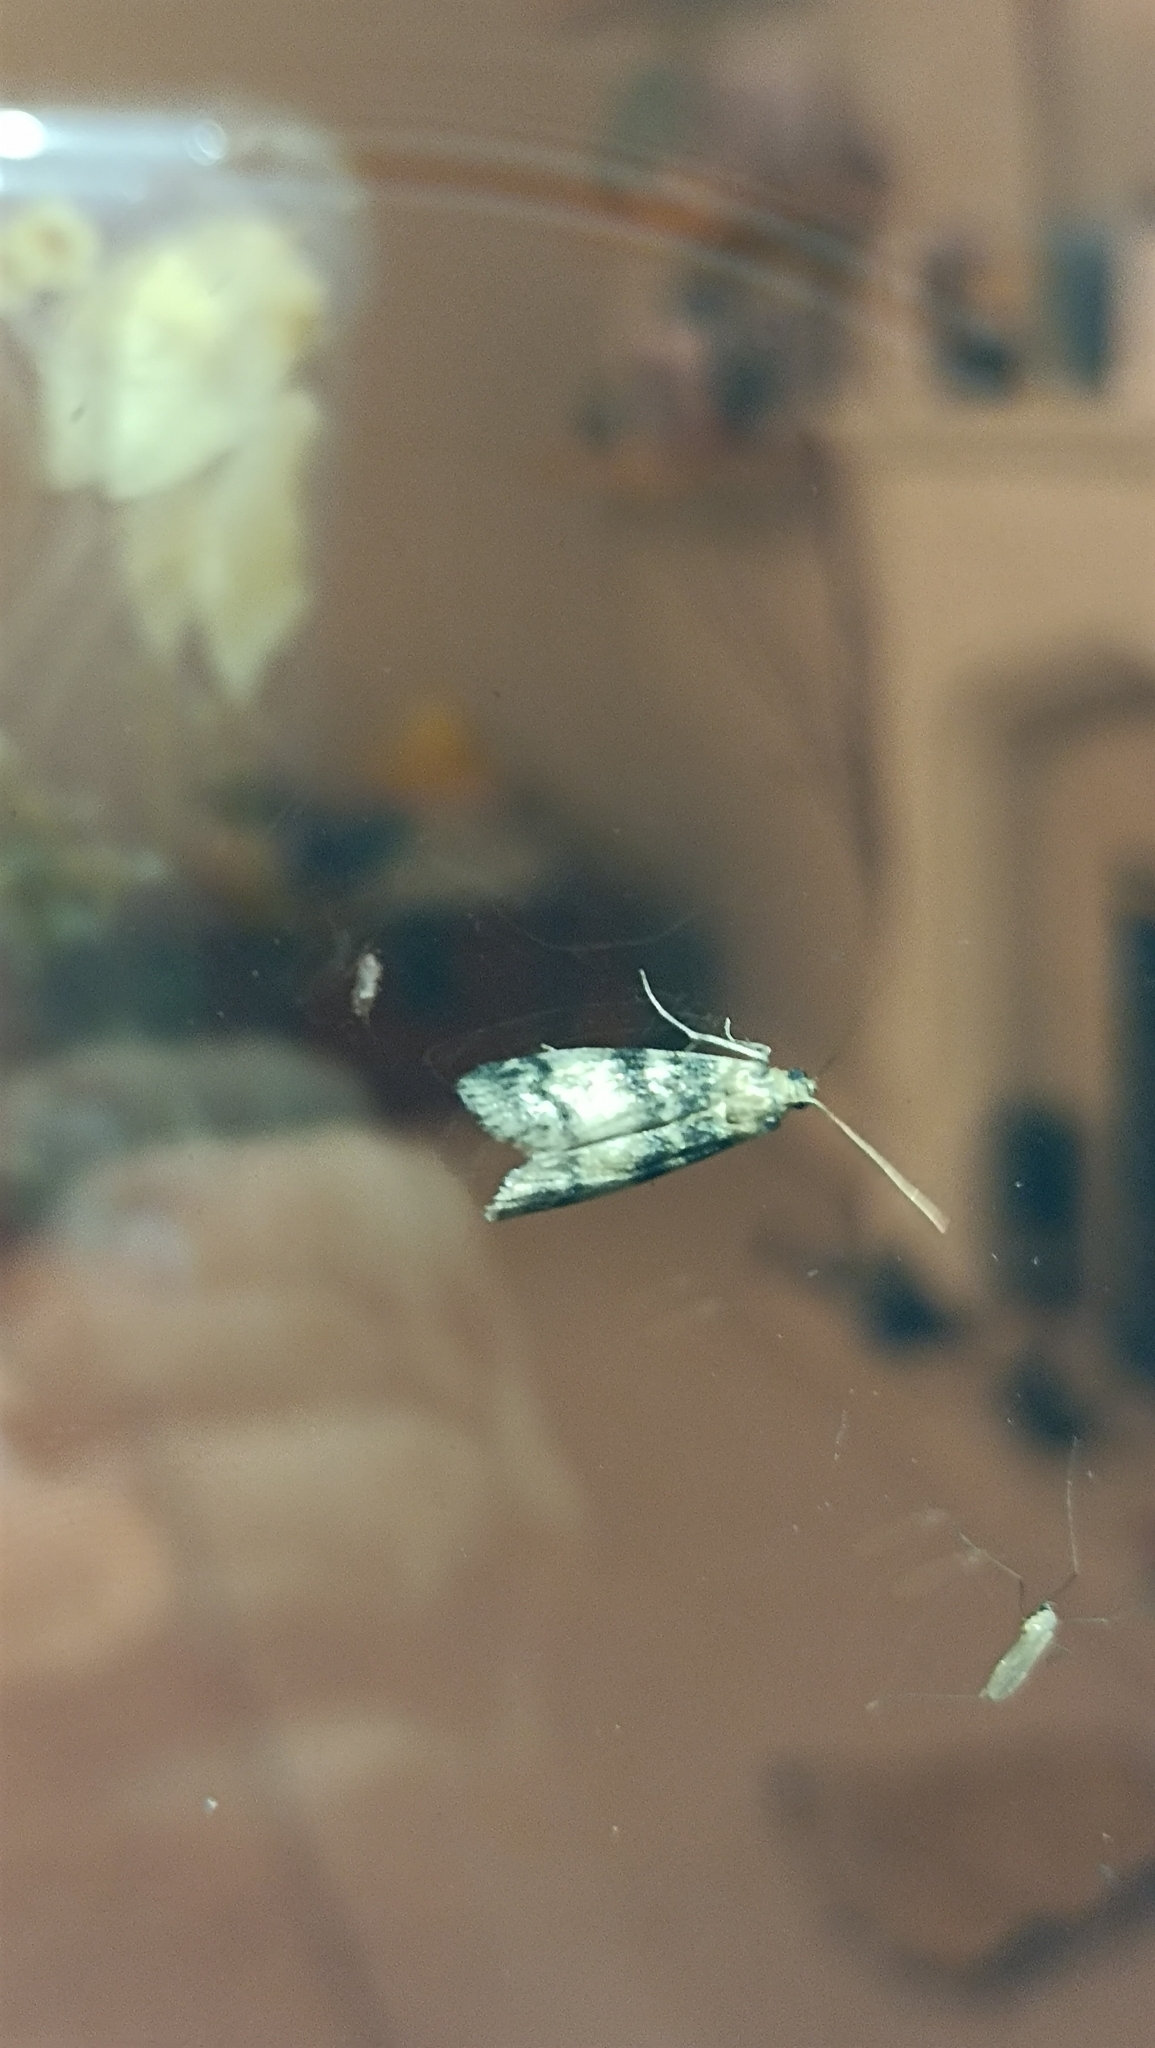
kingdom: Animalia
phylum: Arthropoda
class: Insecta
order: Lepidoptera
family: Pyralidae
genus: Euzophera
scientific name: Euzophera pinguis
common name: Ash-bark knot-horn
